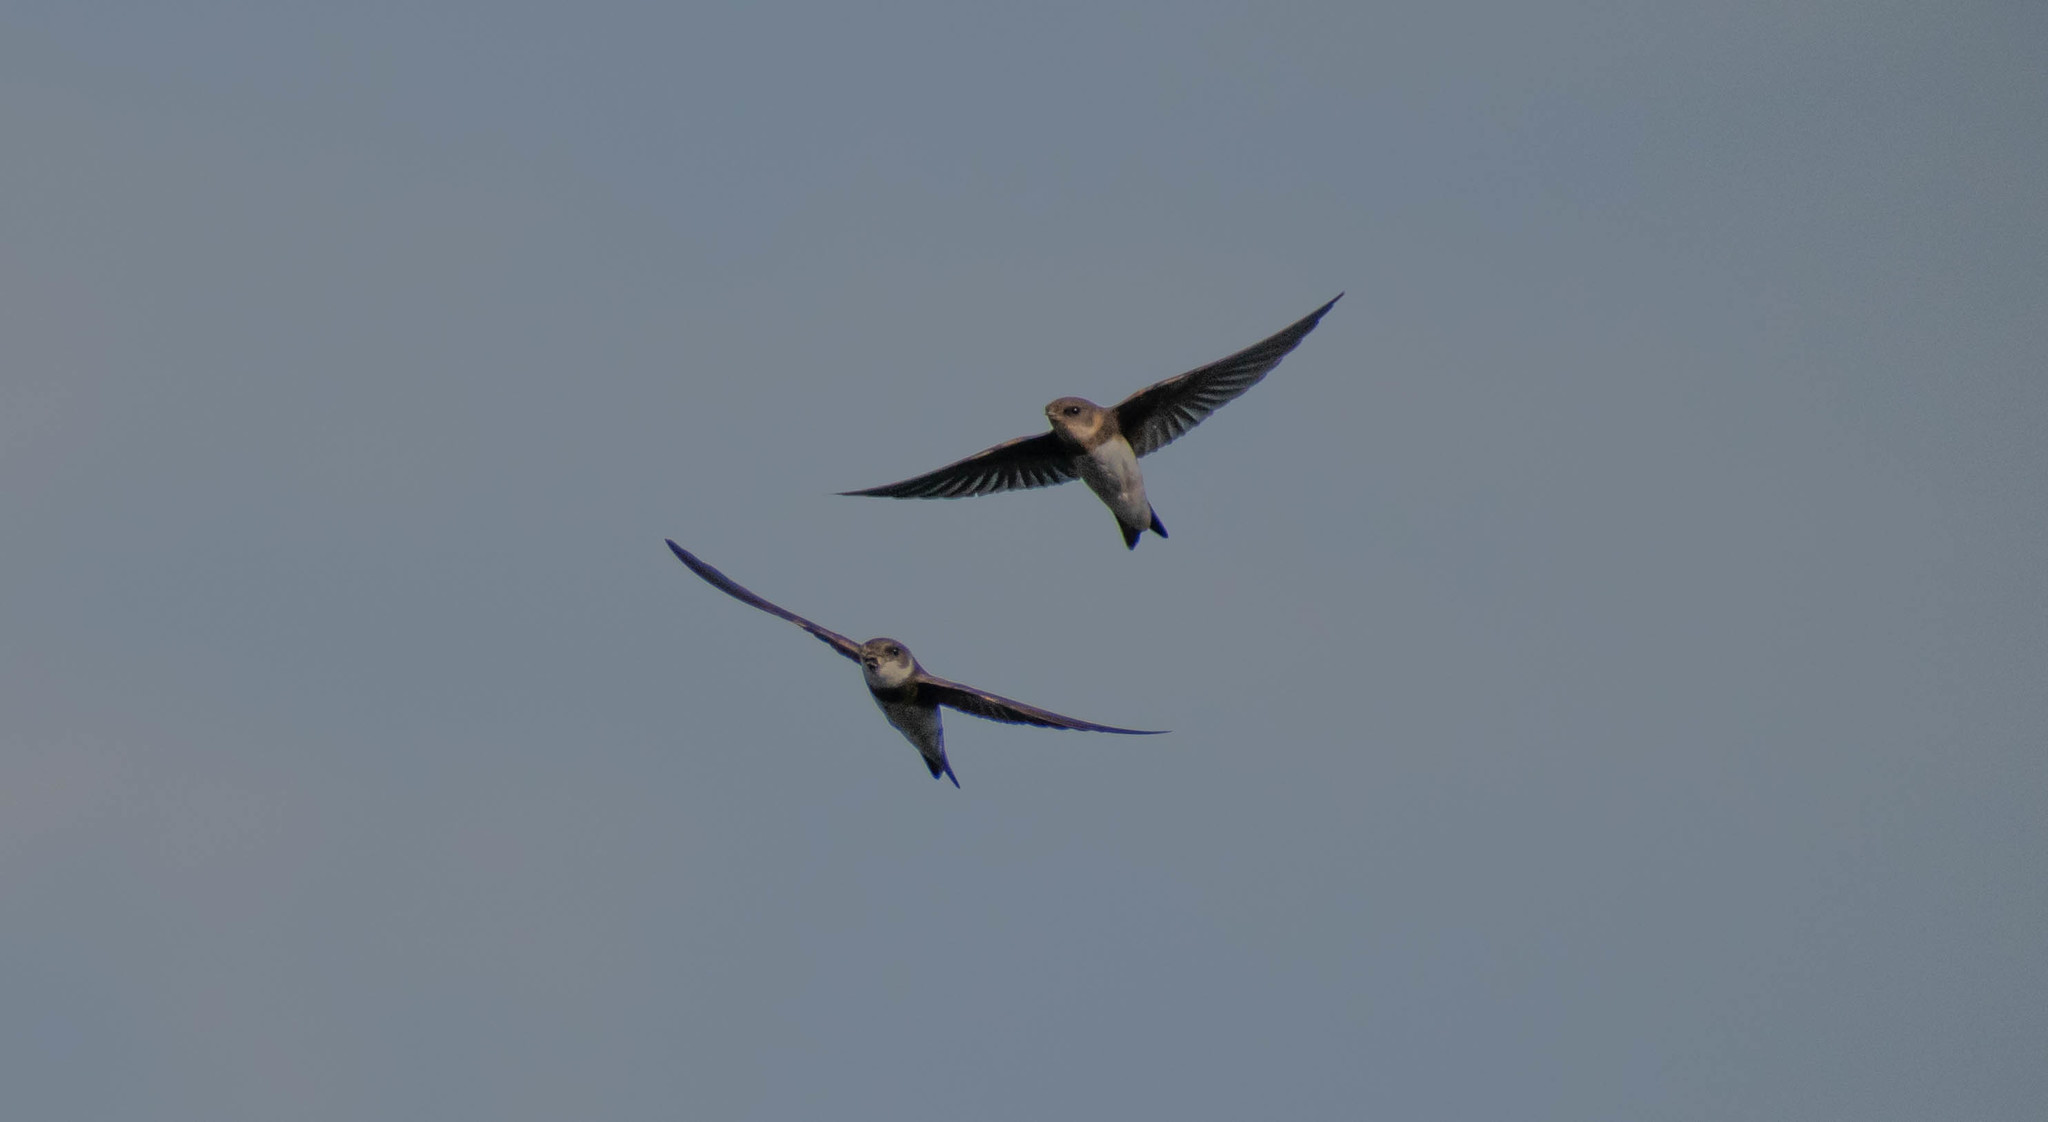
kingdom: Animalia
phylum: Chordata
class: Aves
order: Passeriformes
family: Hirundinidae
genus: Riparia
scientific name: Riparia riparia
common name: Sand martin
